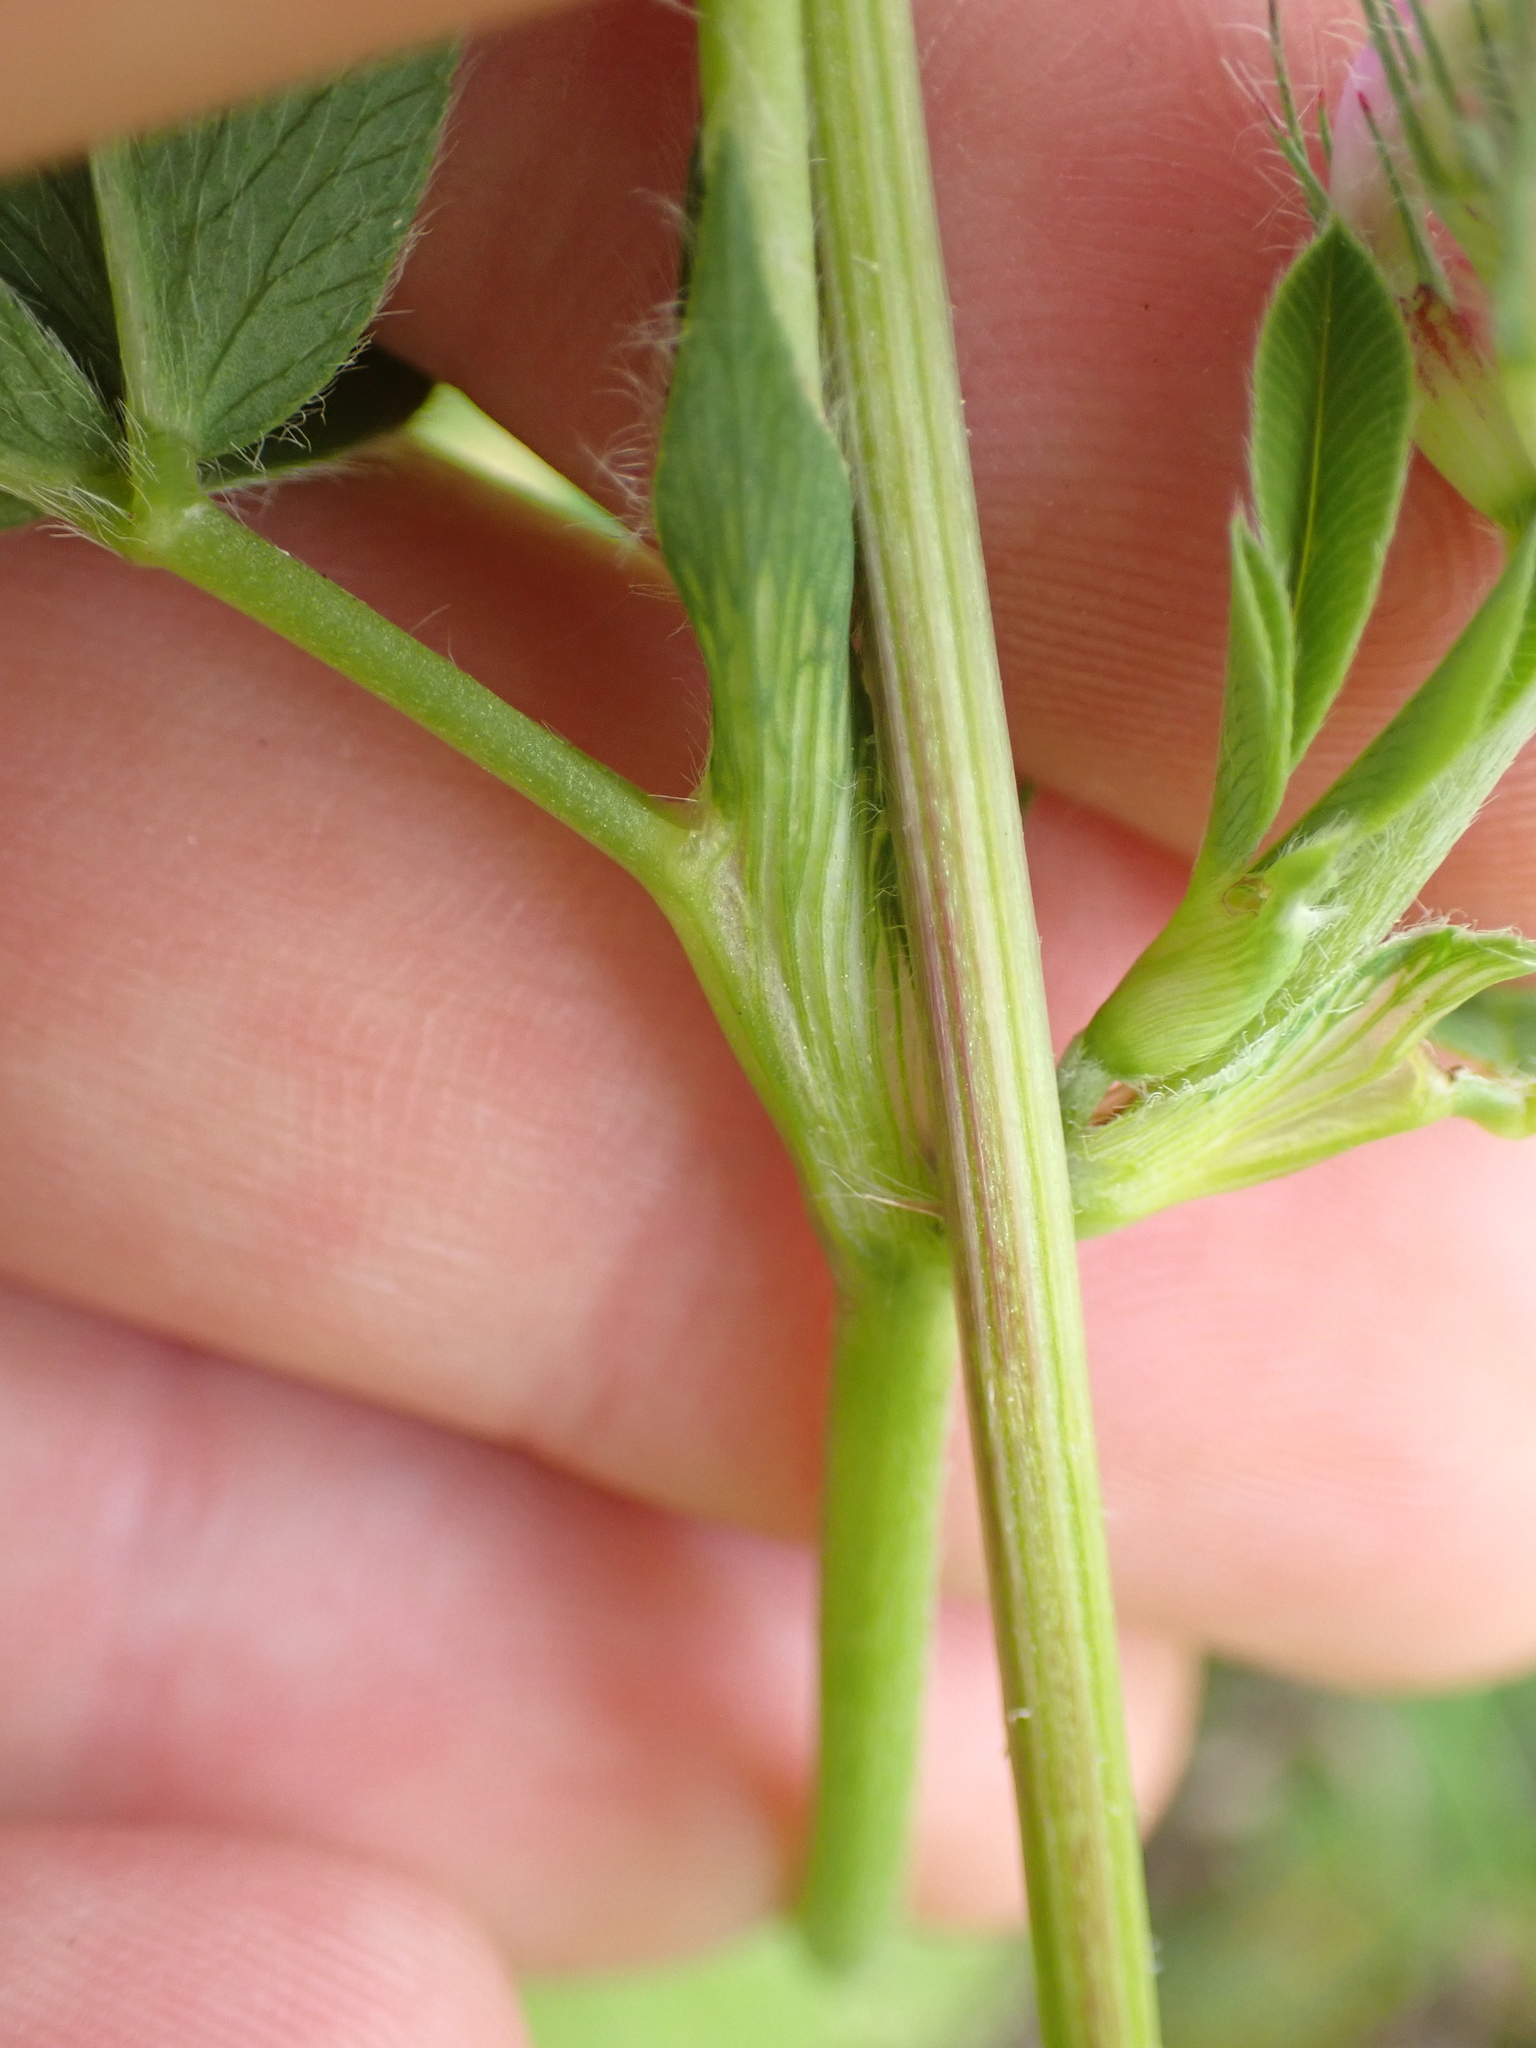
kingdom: Plantae
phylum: Tracheophyta
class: Magnoliopsida
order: Fabales
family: Fabaceae
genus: Trifolium
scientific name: Trifolium medium
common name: Zigzag clover
